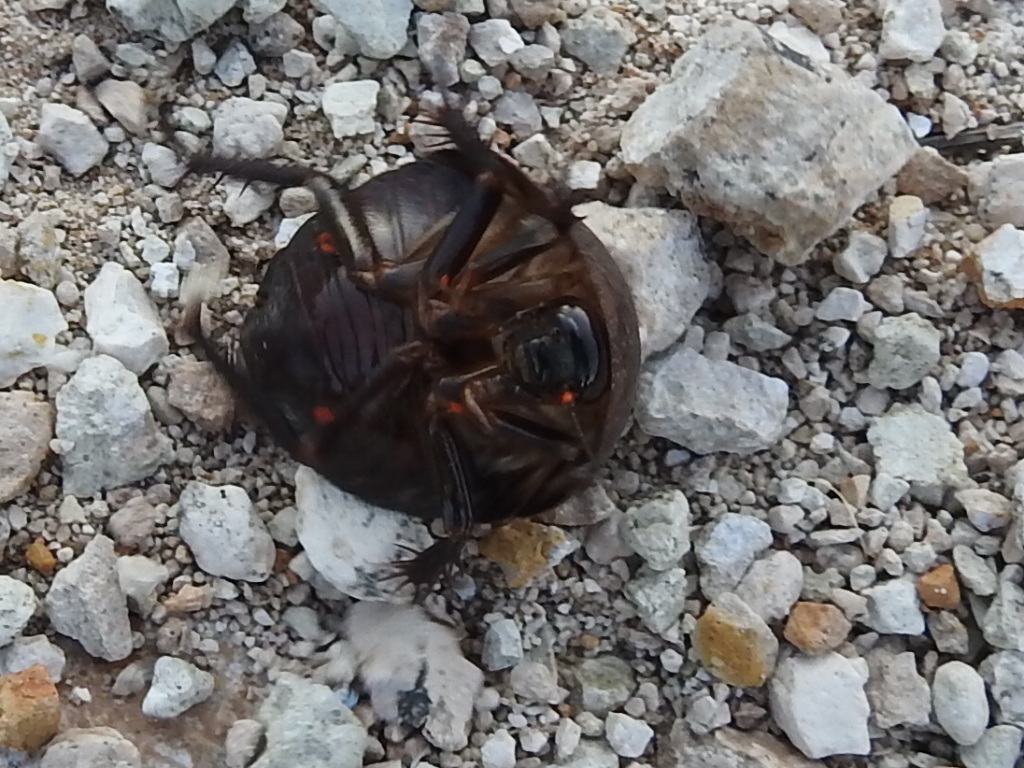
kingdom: Animalia
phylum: Arthropoda
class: Insecta
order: Blattodea
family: Corydiidae
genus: Arenivaga
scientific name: Arenivaga bolliana
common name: Boll's sand cockroach
